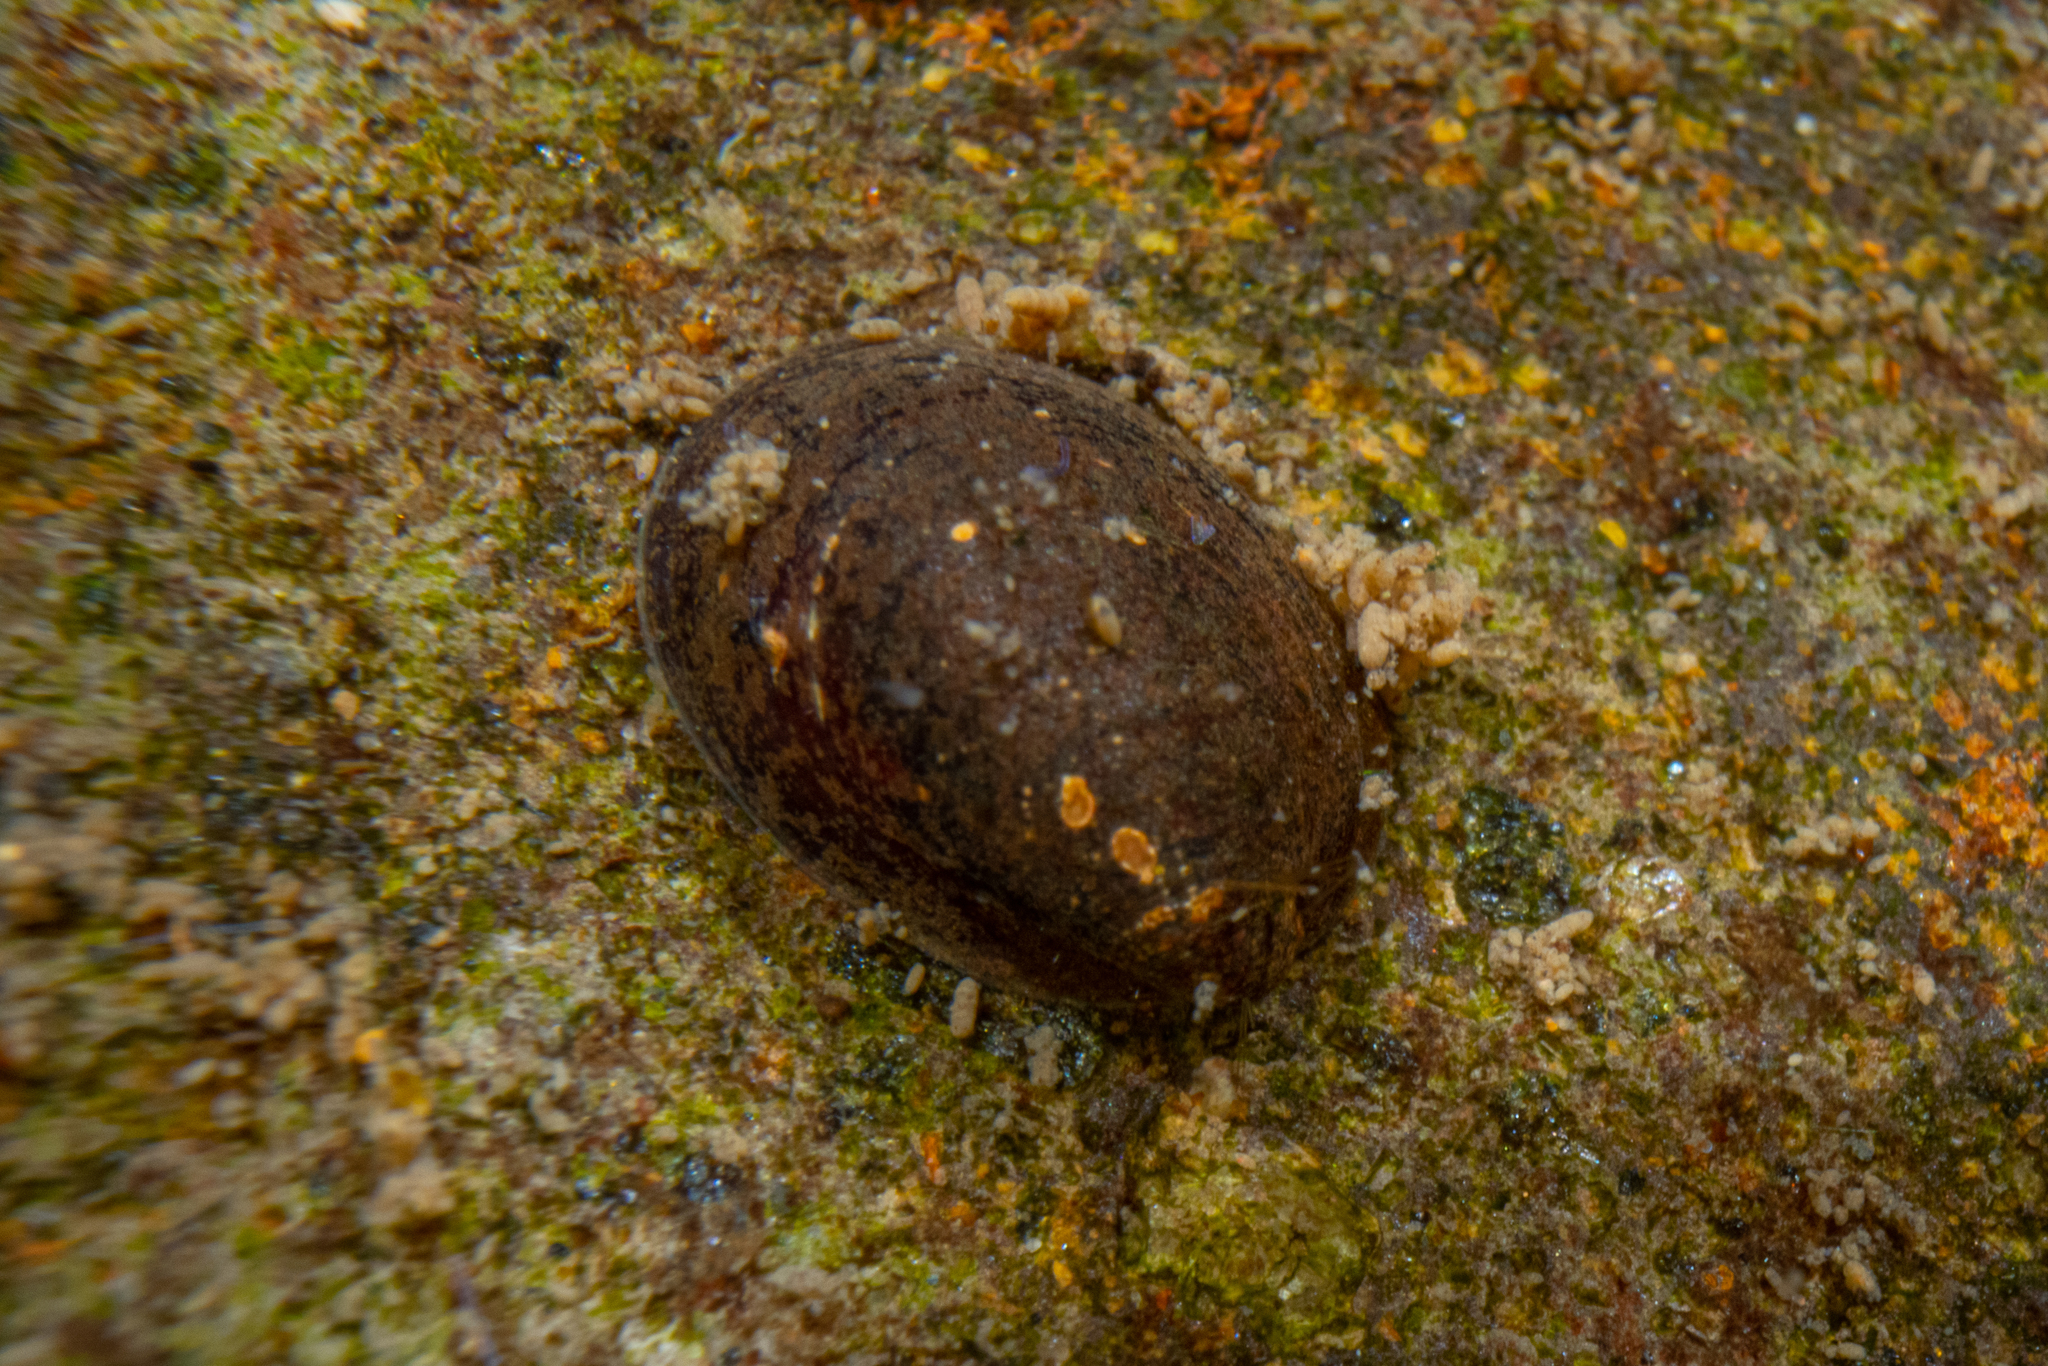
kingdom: Animalia
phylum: Mollusca
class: Gastropoda
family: Latiidae
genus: Latia
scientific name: Latia neritoides
